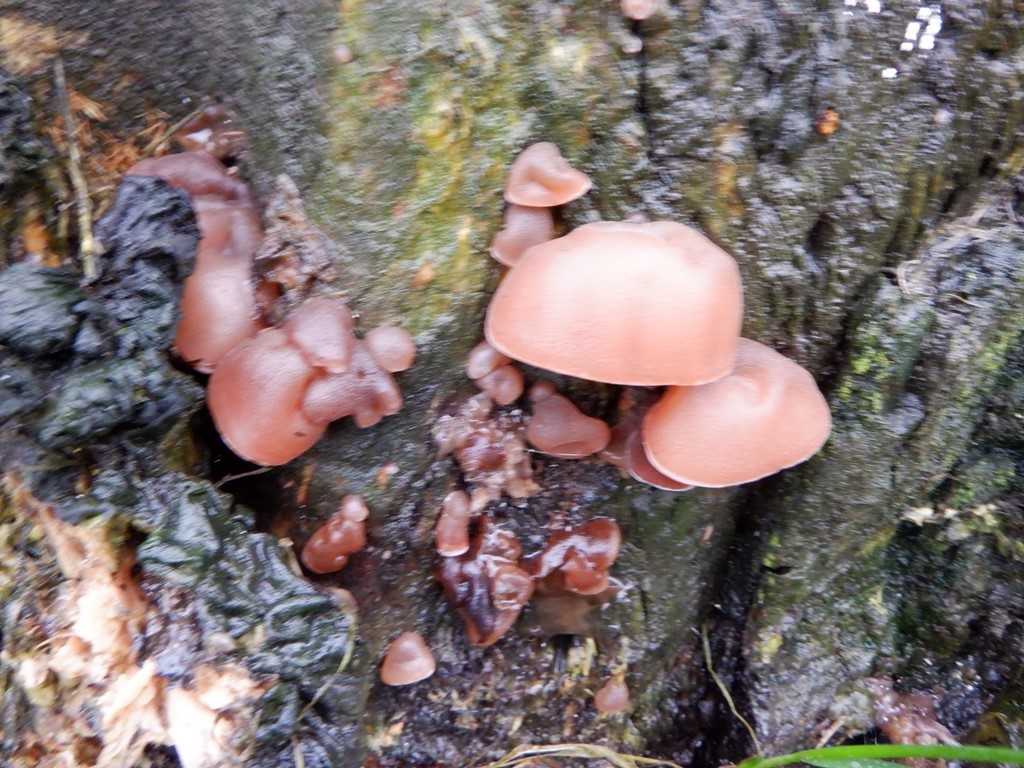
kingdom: Fungi
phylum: Basidiomycota
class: Agaricomycetes
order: Auriculariales
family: Auriculariaceae
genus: Auricularia
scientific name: Auricularia auricula-judae
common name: Jelly ear
